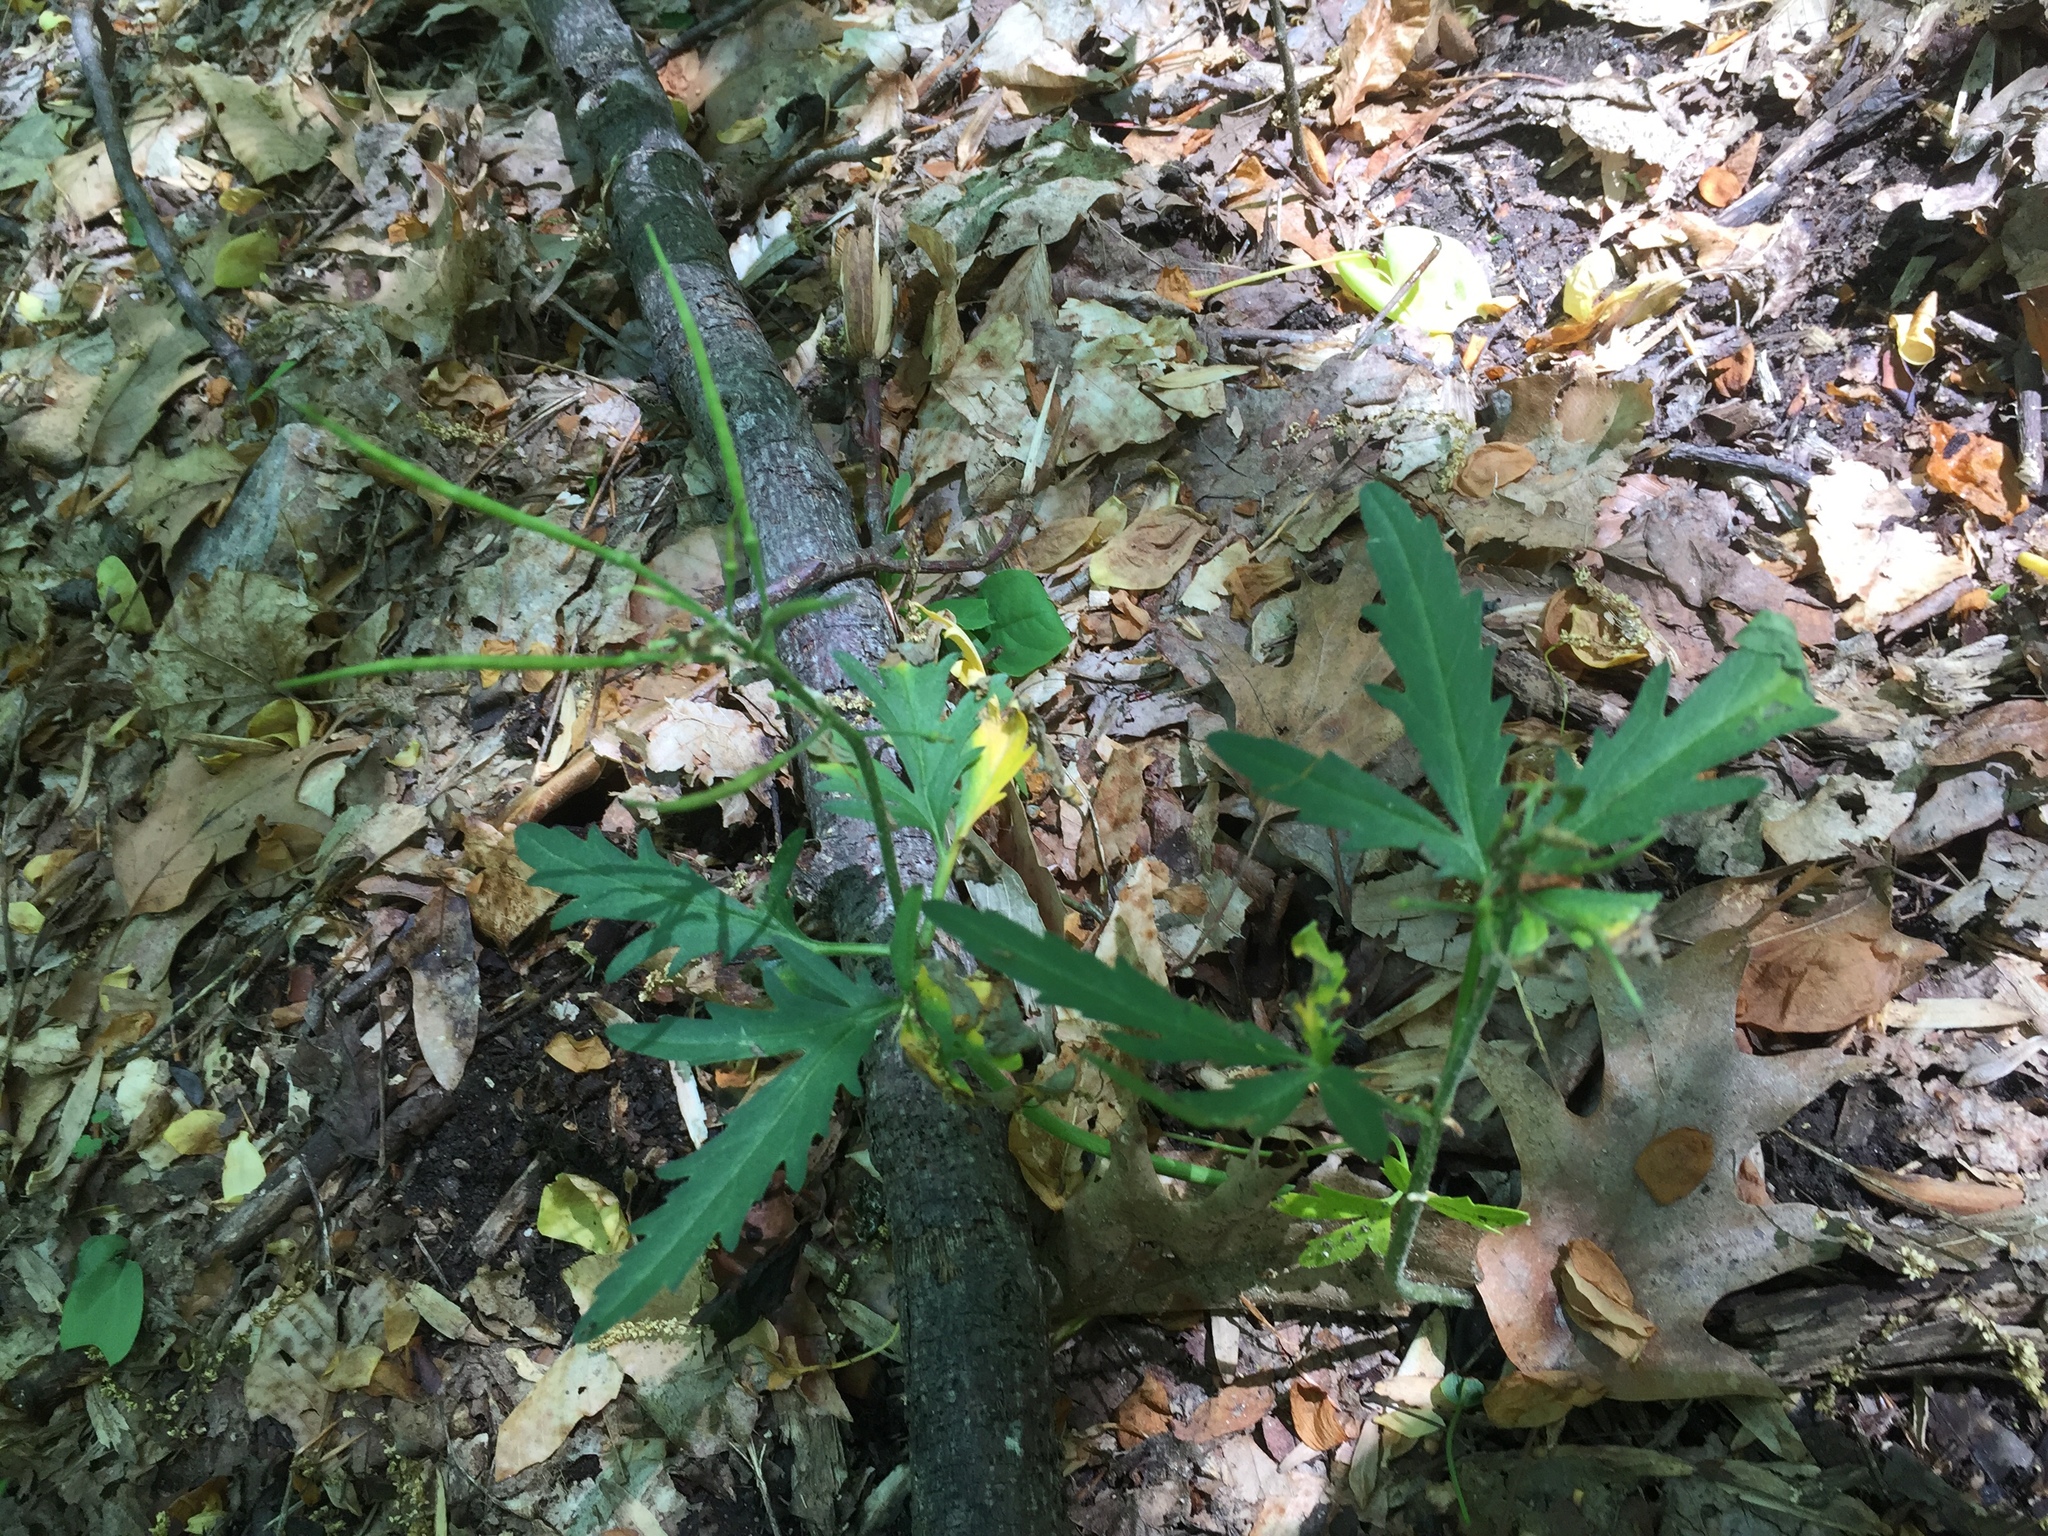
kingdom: Plantae
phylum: Tracheophyta
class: Magnoliopsida
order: Brassicales
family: Brassicaceae
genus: Cardamine
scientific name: Cardamine concatenata
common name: Cut-leaf toothcup
